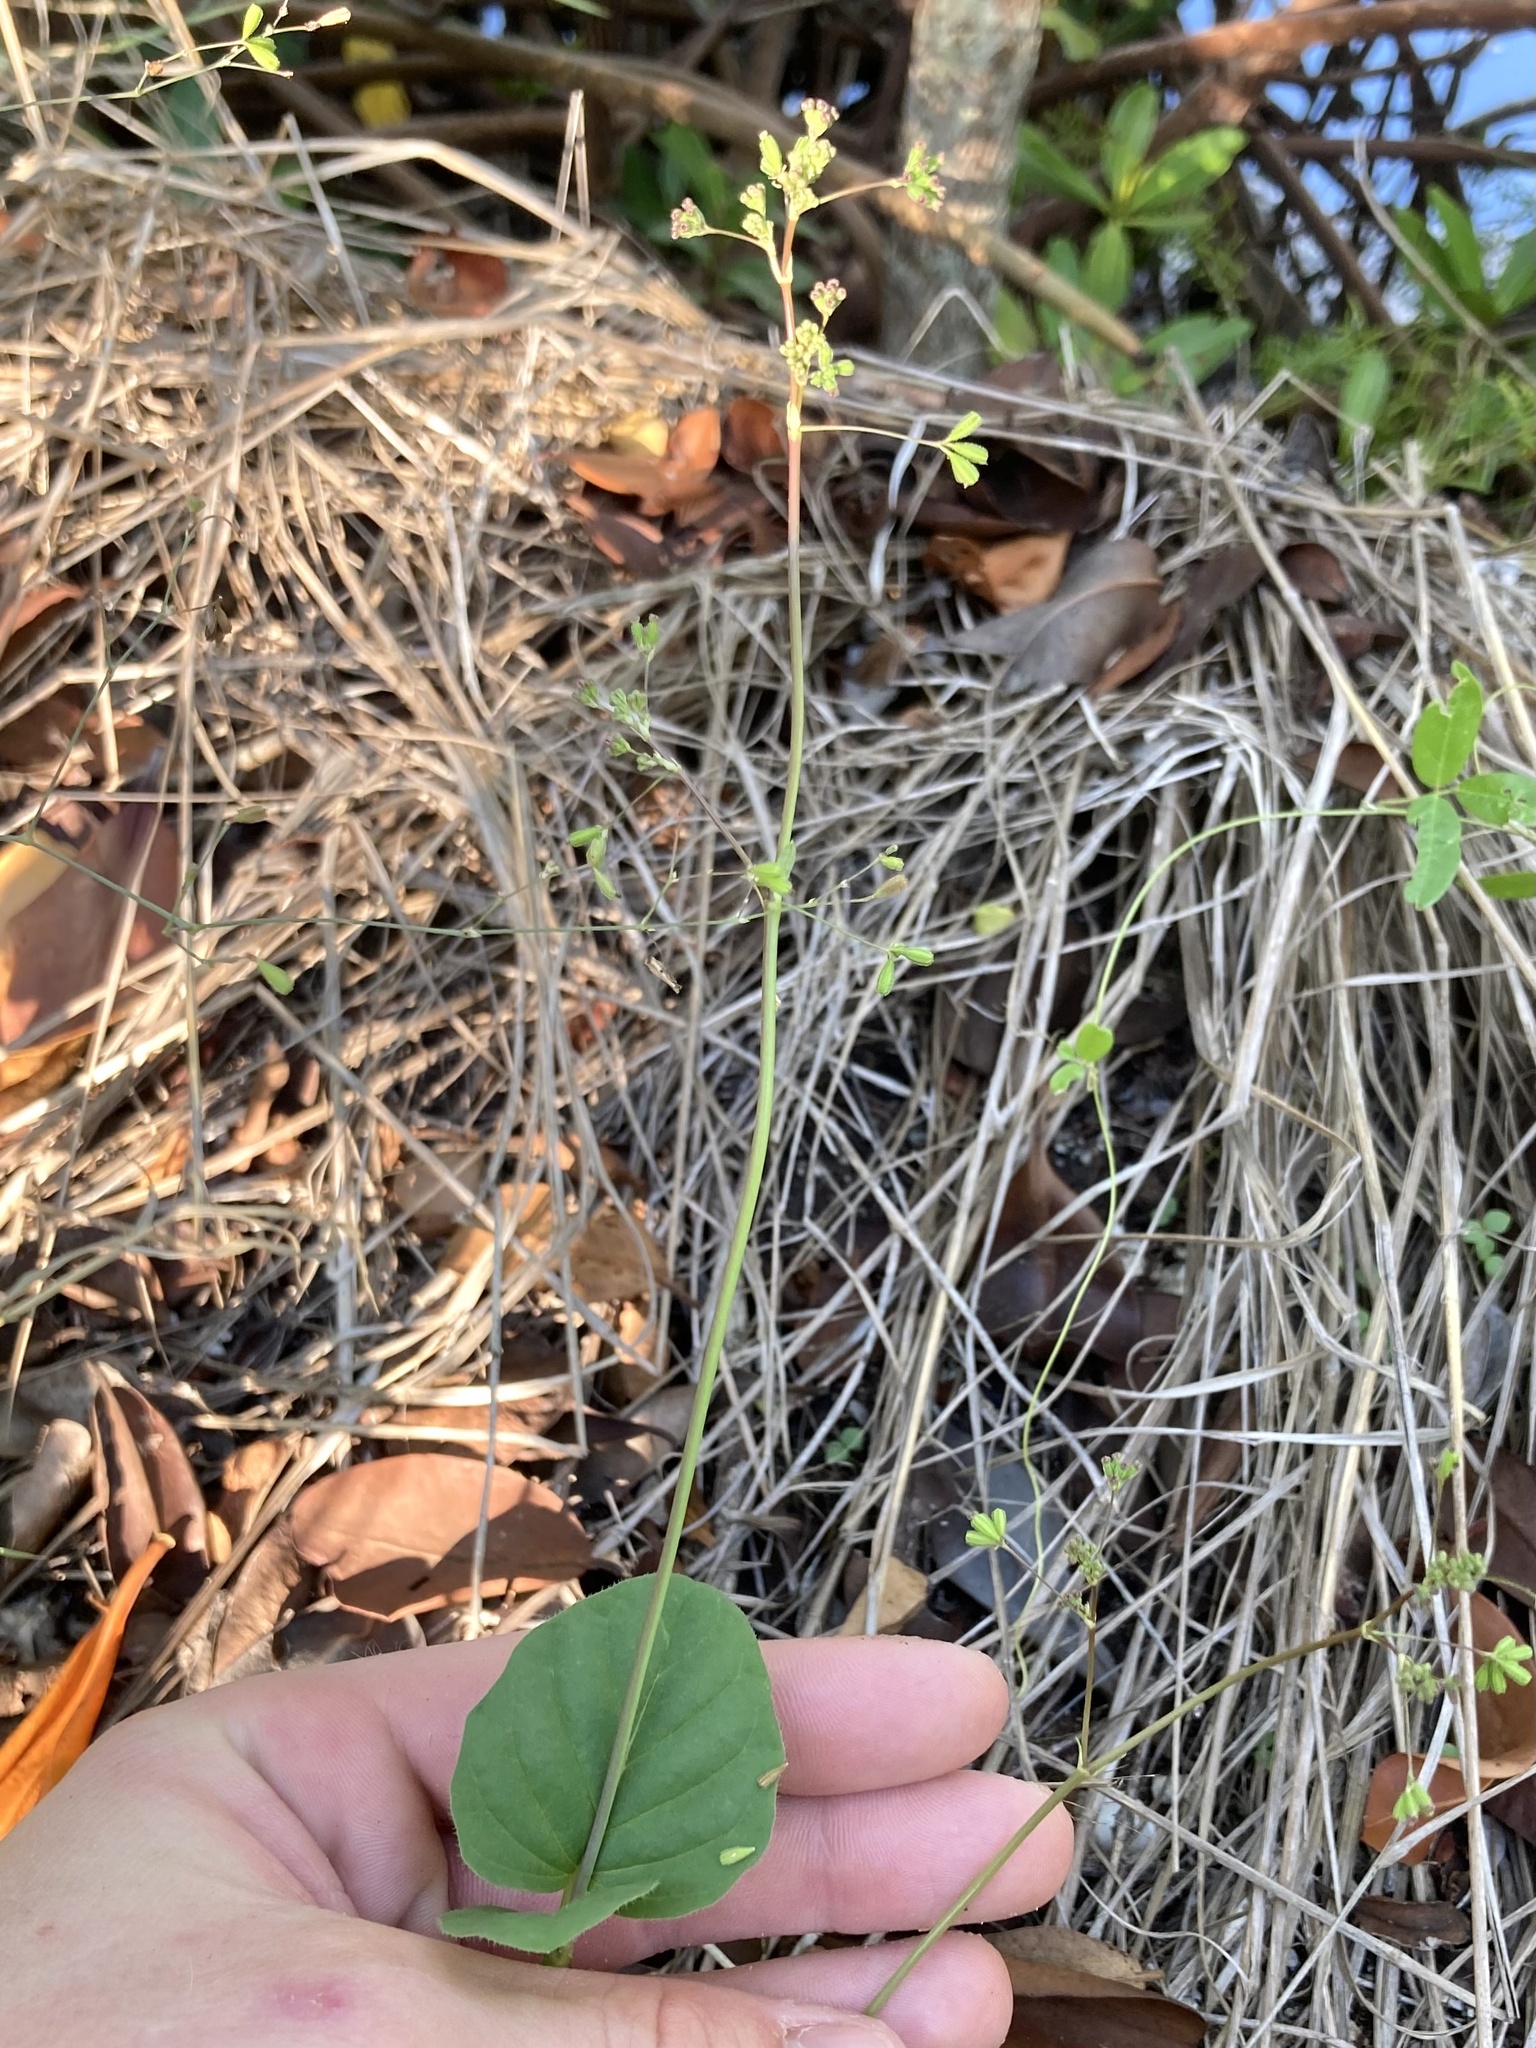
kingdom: Plantae
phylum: Tracheophyta
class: Magnoliopsida
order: Caryophyllales
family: Nyctaginaceae
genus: Boerhavia
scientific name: Boerhavia diffusa
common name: Red spiderling
